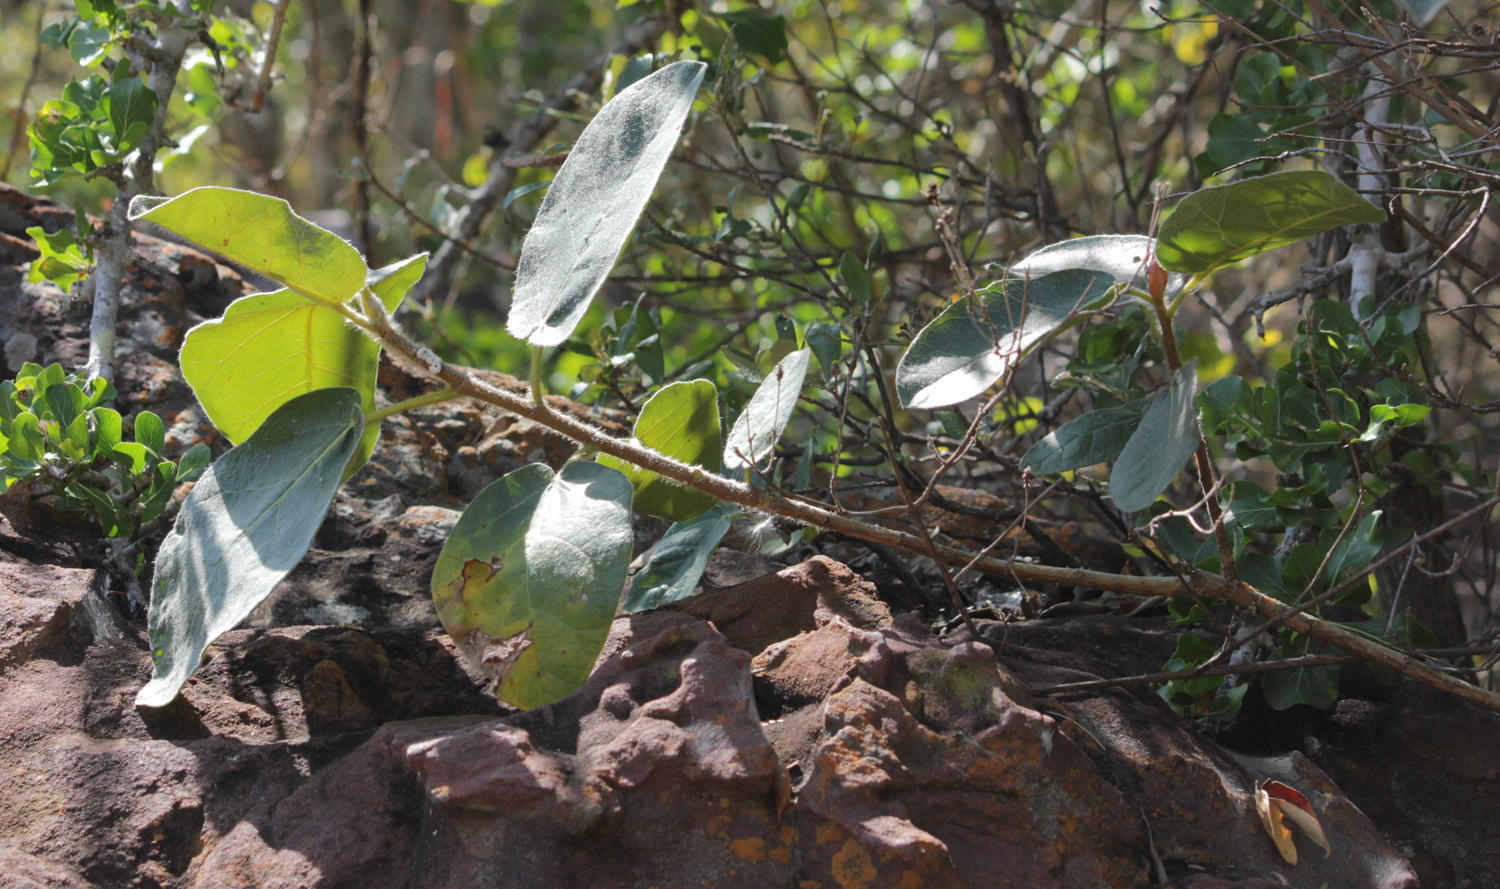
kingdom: Plantae
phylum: Tracheophyta
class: Magnoliopsida
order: Rosales
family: Moraceae
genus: Ficus
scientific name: Ficus glumosa
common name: Hairy rock fig
